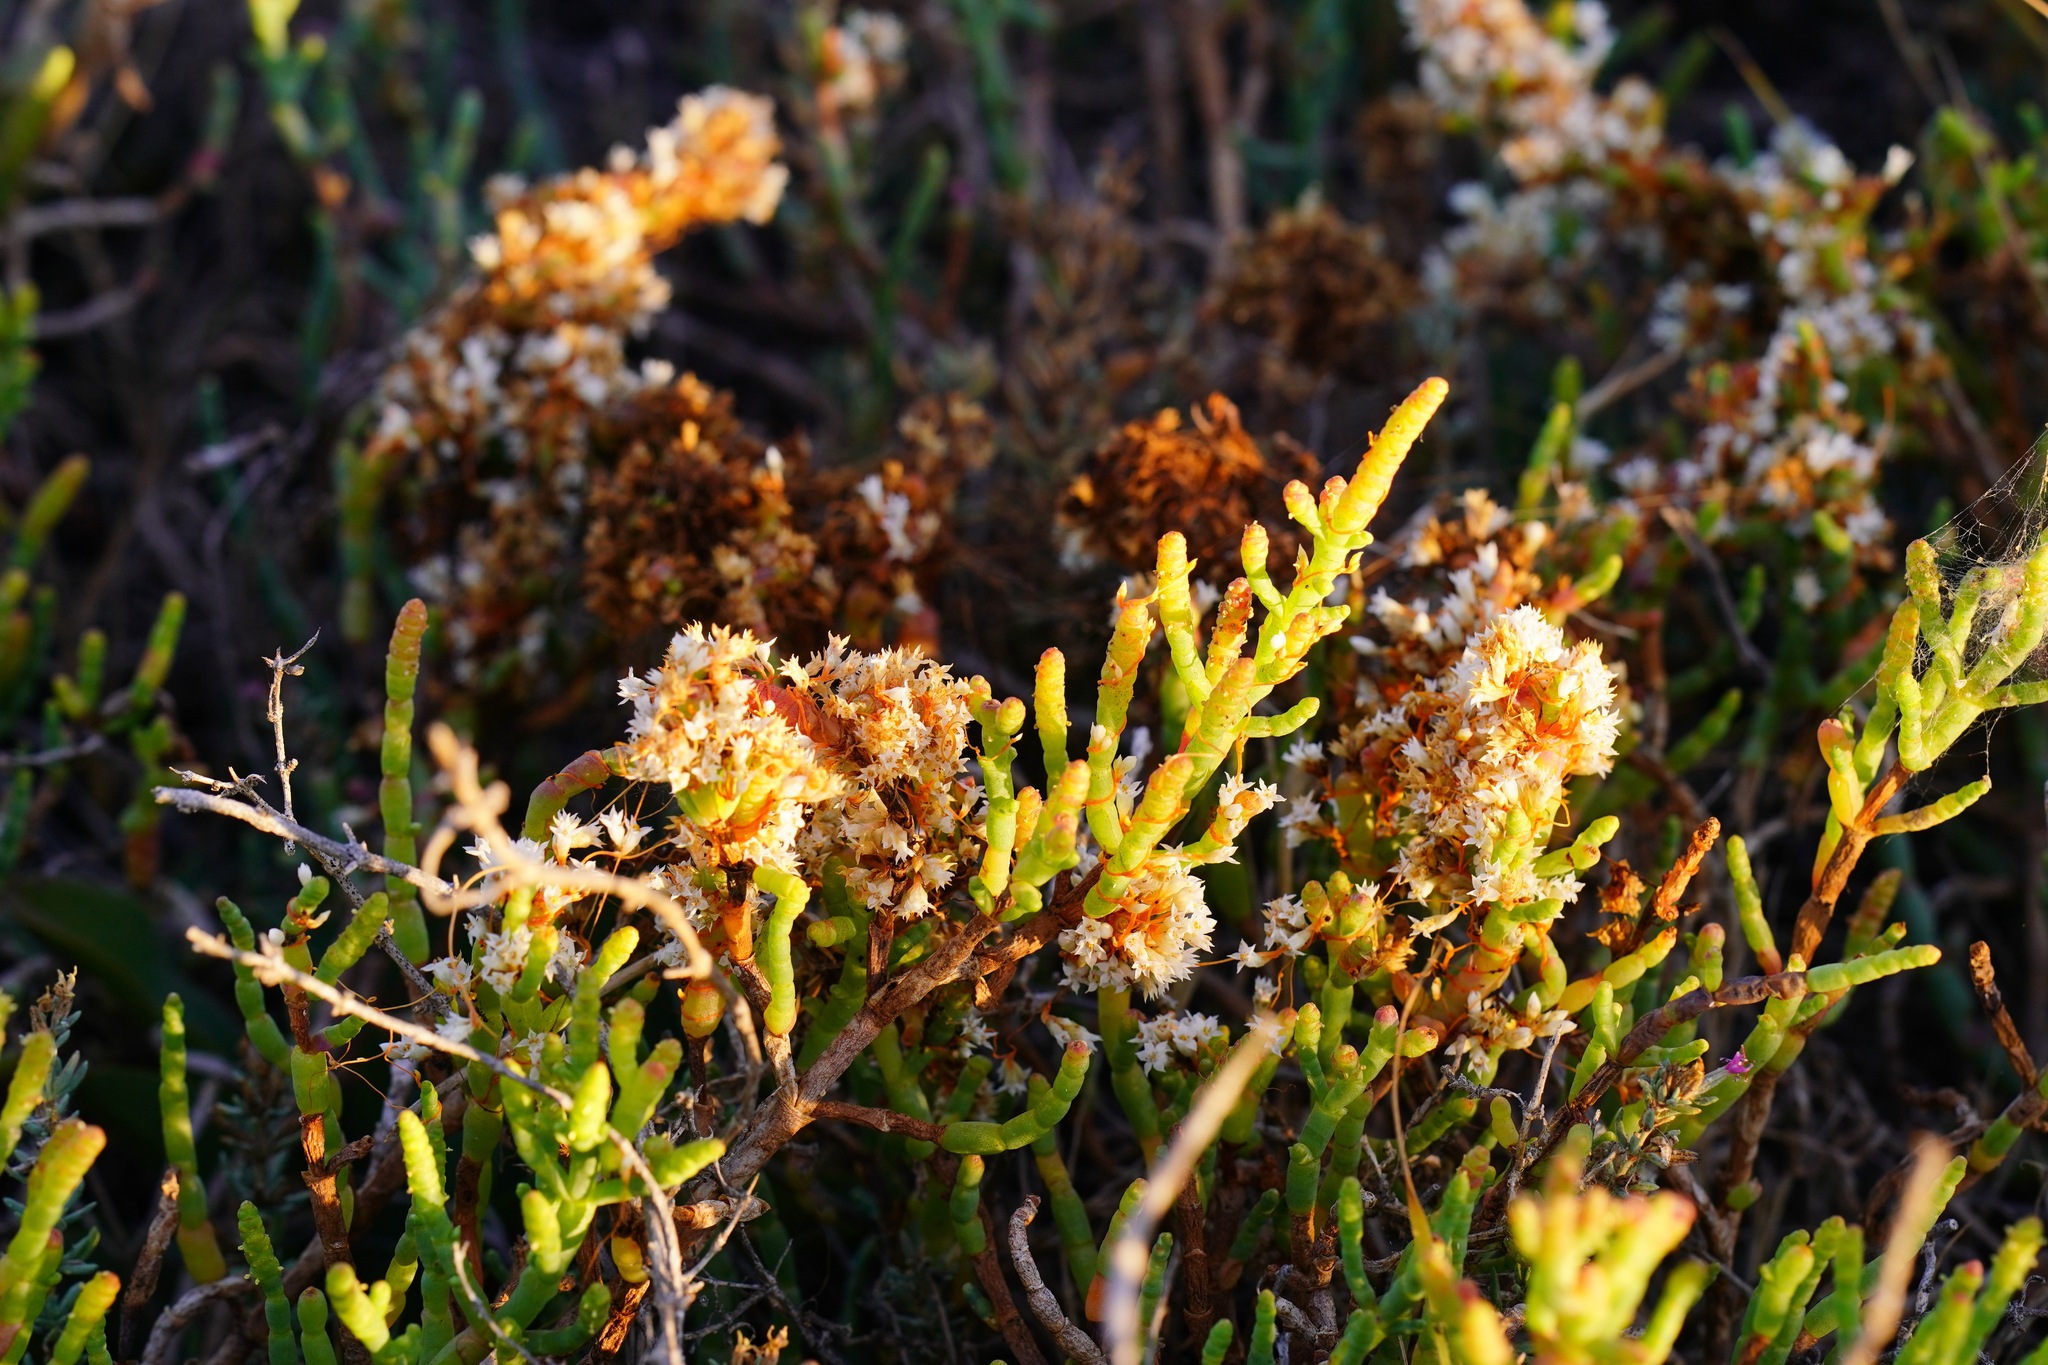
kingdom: Plantae
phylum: Tracheophyta
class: Magnoliopsida
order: Solanales
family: Convolvulaceae
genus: Cuscuta
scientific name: Cuscuta pacifica
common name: Large saltmarsh dodder
